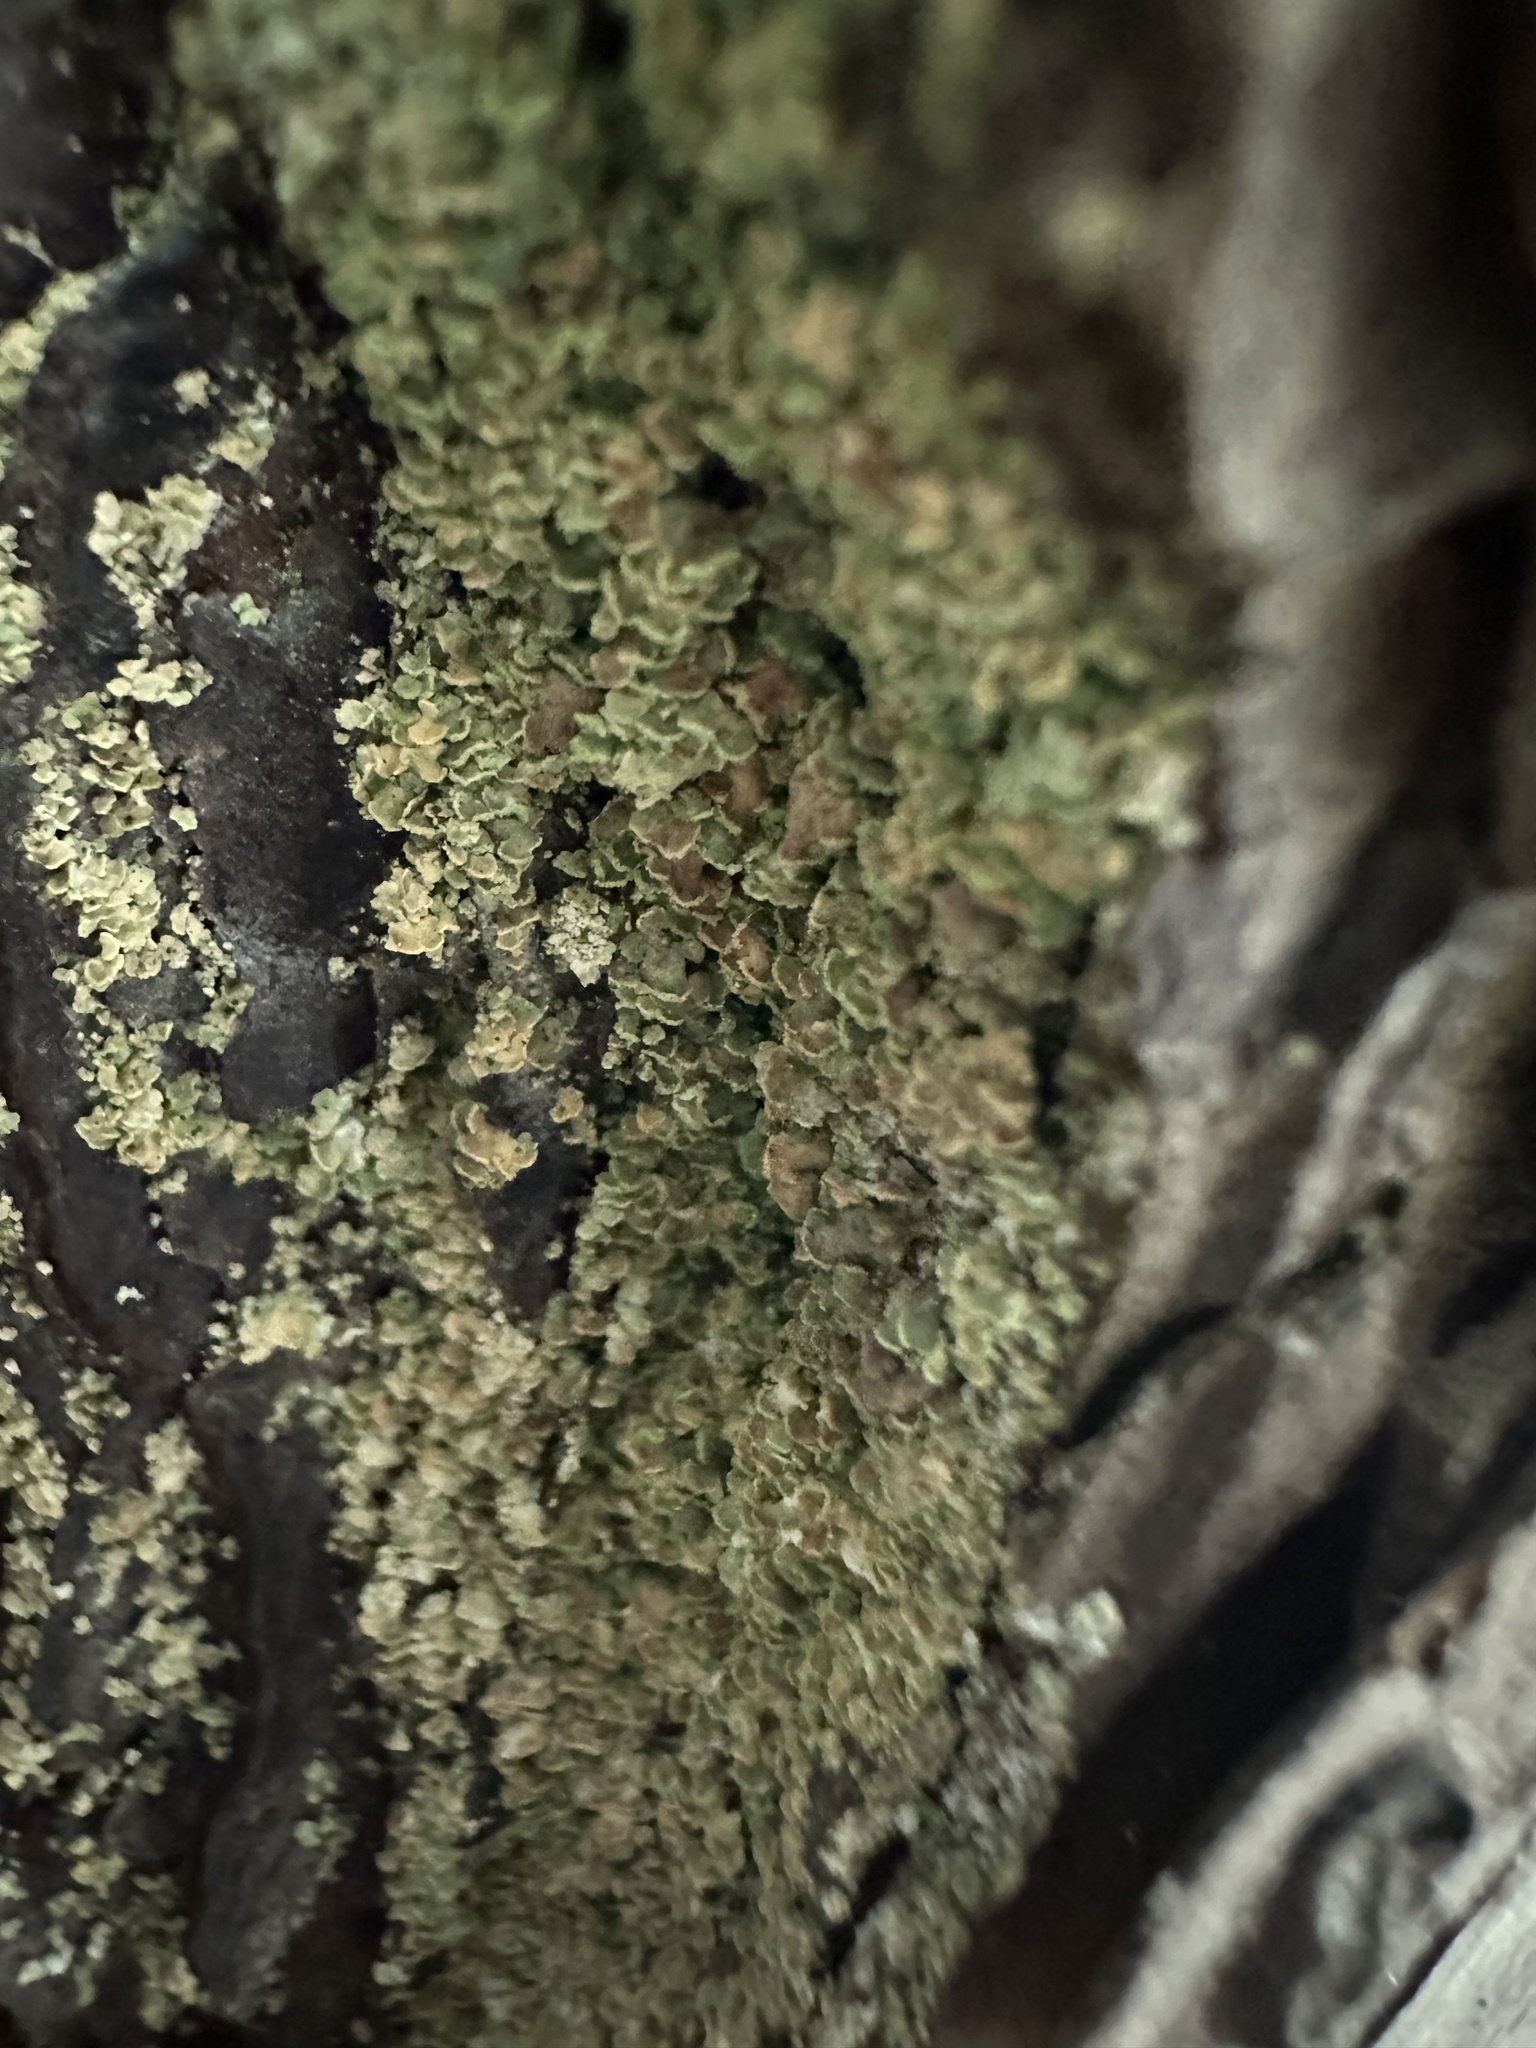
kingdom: Fungi
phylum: Ascomycota
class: Lecanoromycetes
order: Umbilicariales
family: Ophioparmaceae
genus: Hypocenomyce
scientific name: Hypocenomyce scalaris
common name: Common clam lichen
